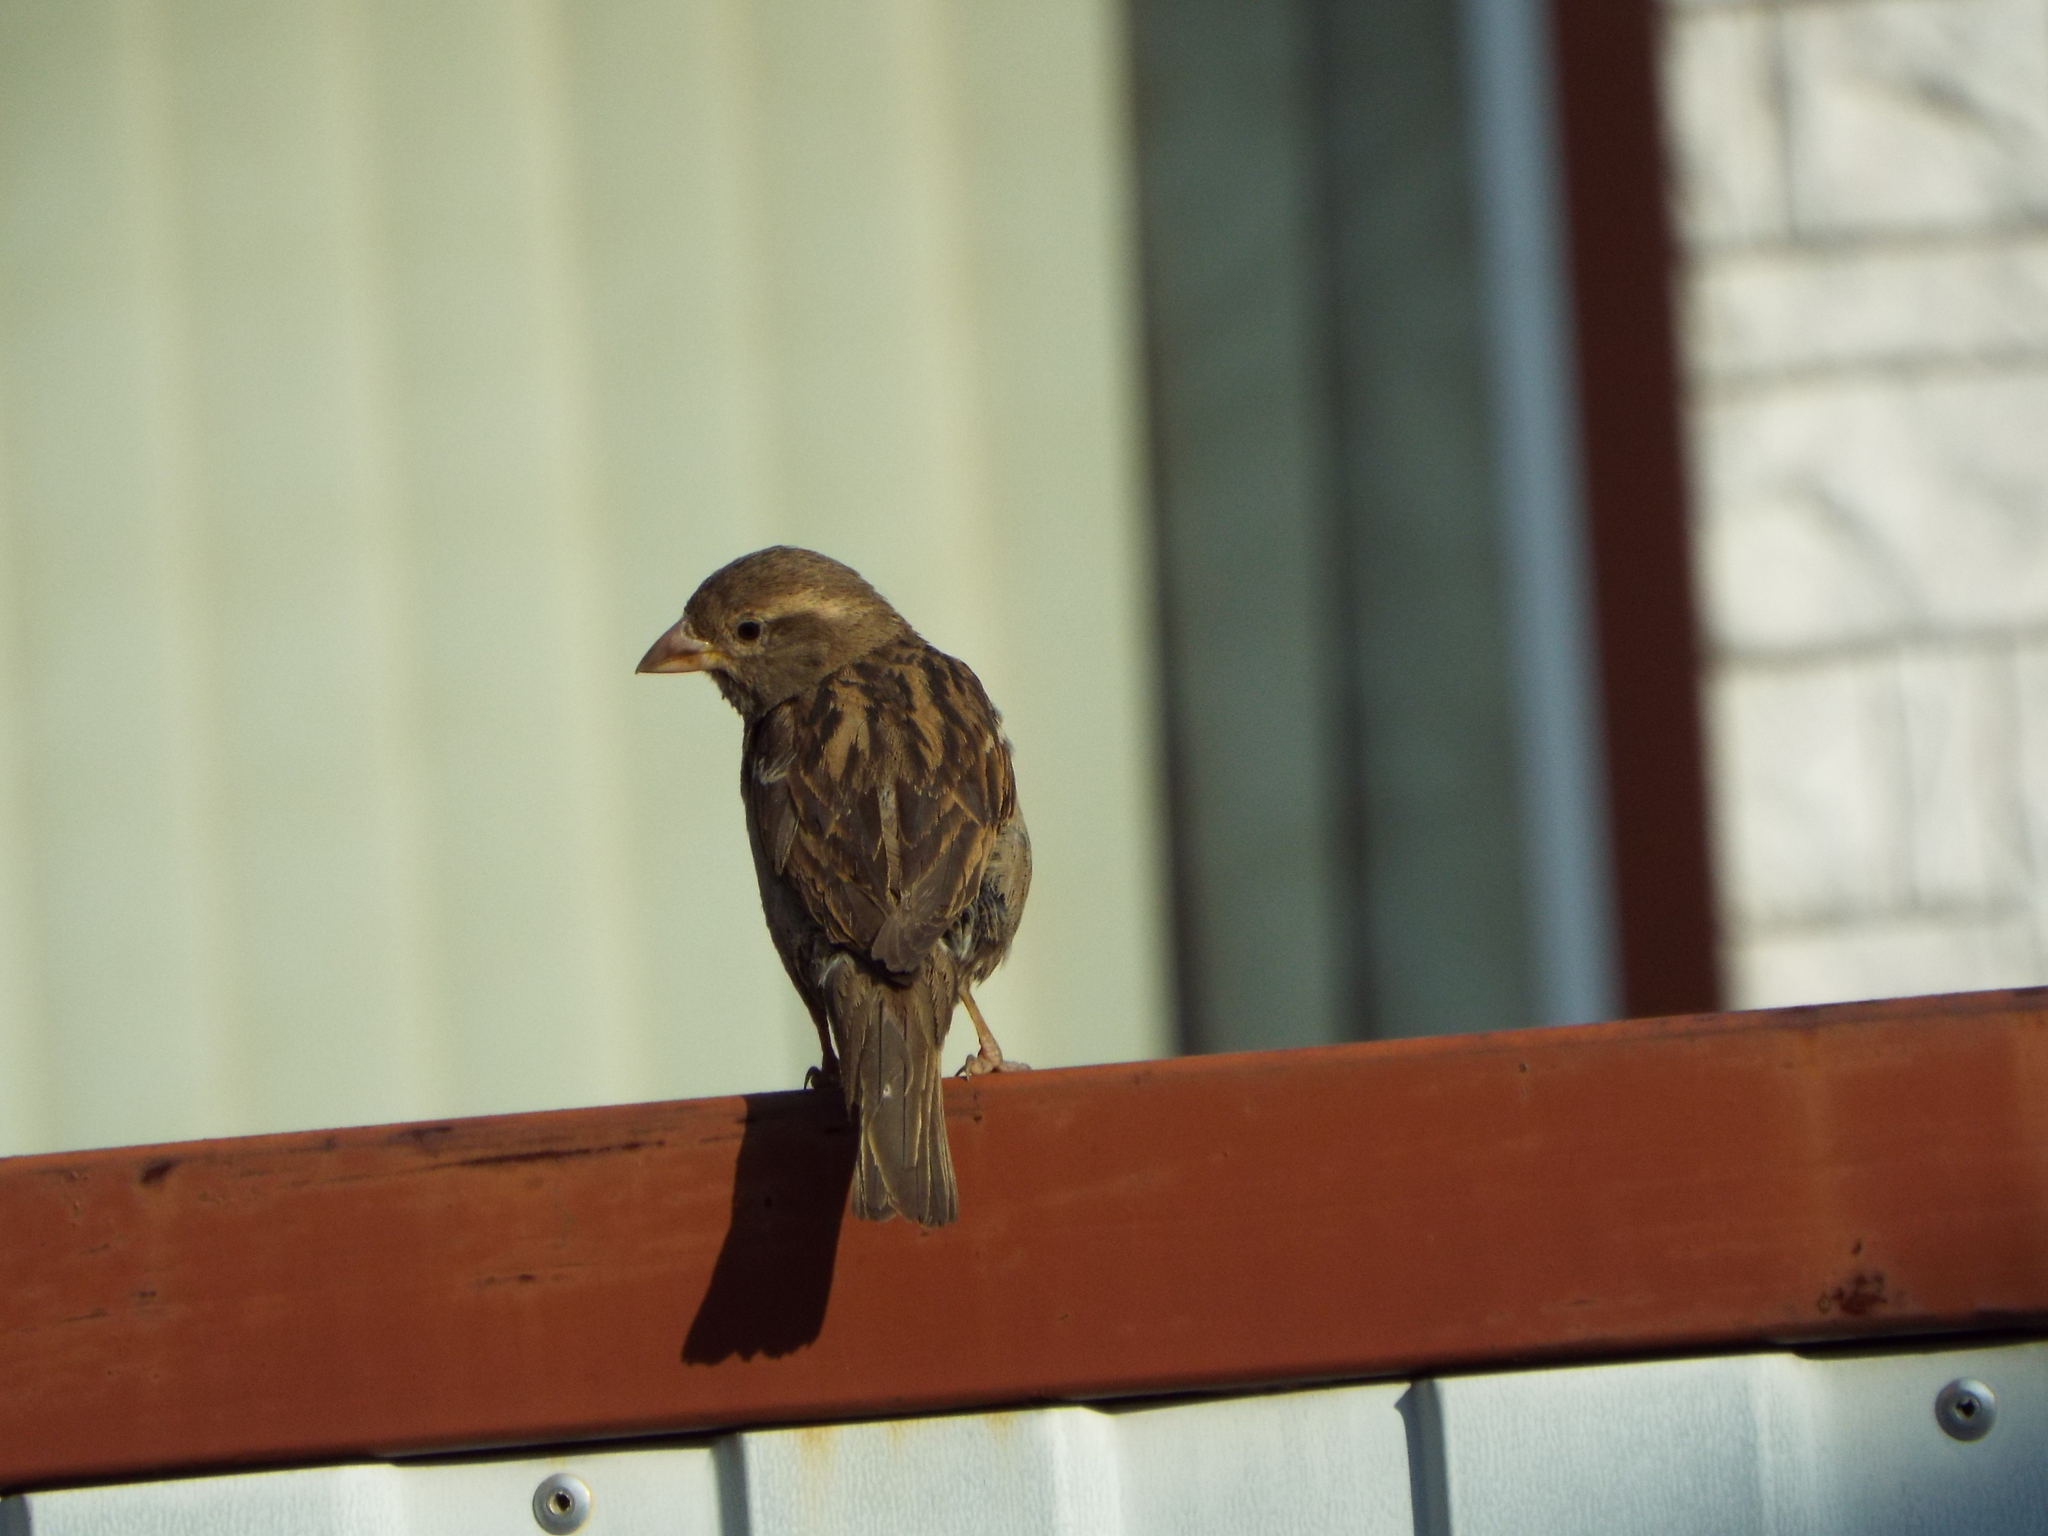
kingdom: Animalia
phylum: Chordata
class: Aves
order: Passeriformes
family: Passeridae
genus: Passer
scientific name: Passer domesticus
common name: House sparrow
